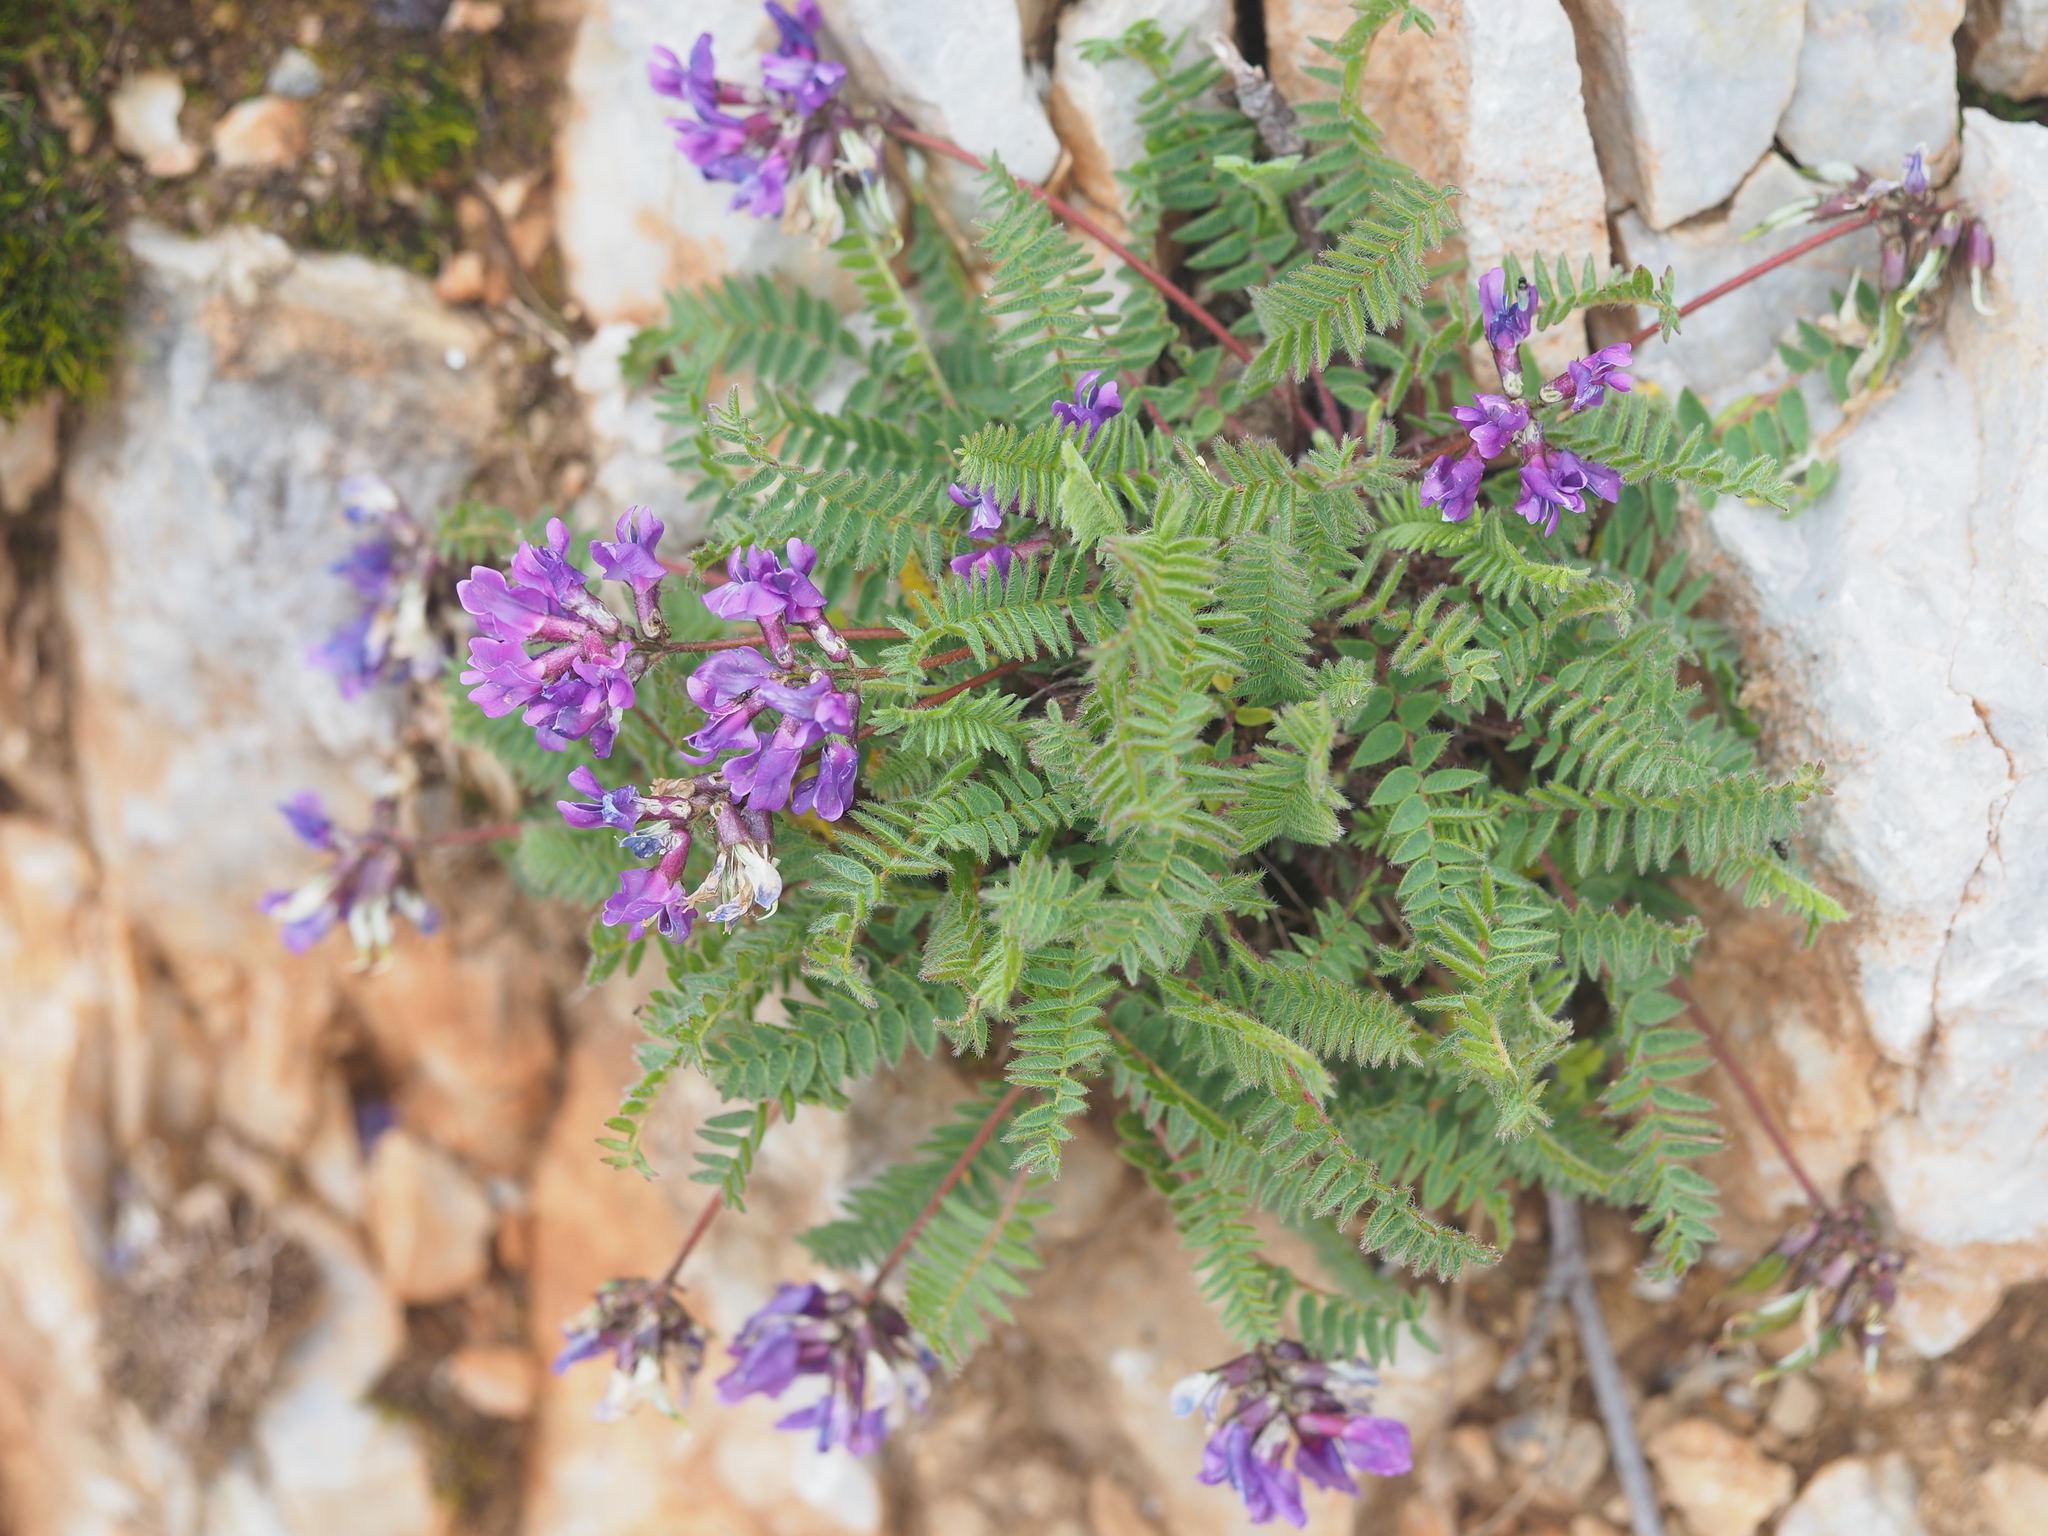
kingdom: Plantae
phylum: Tracheophyta
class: Magnoliopsida
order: Fabales
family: Fabaceae
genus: Oxytropis
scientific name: Oxytropis montana
